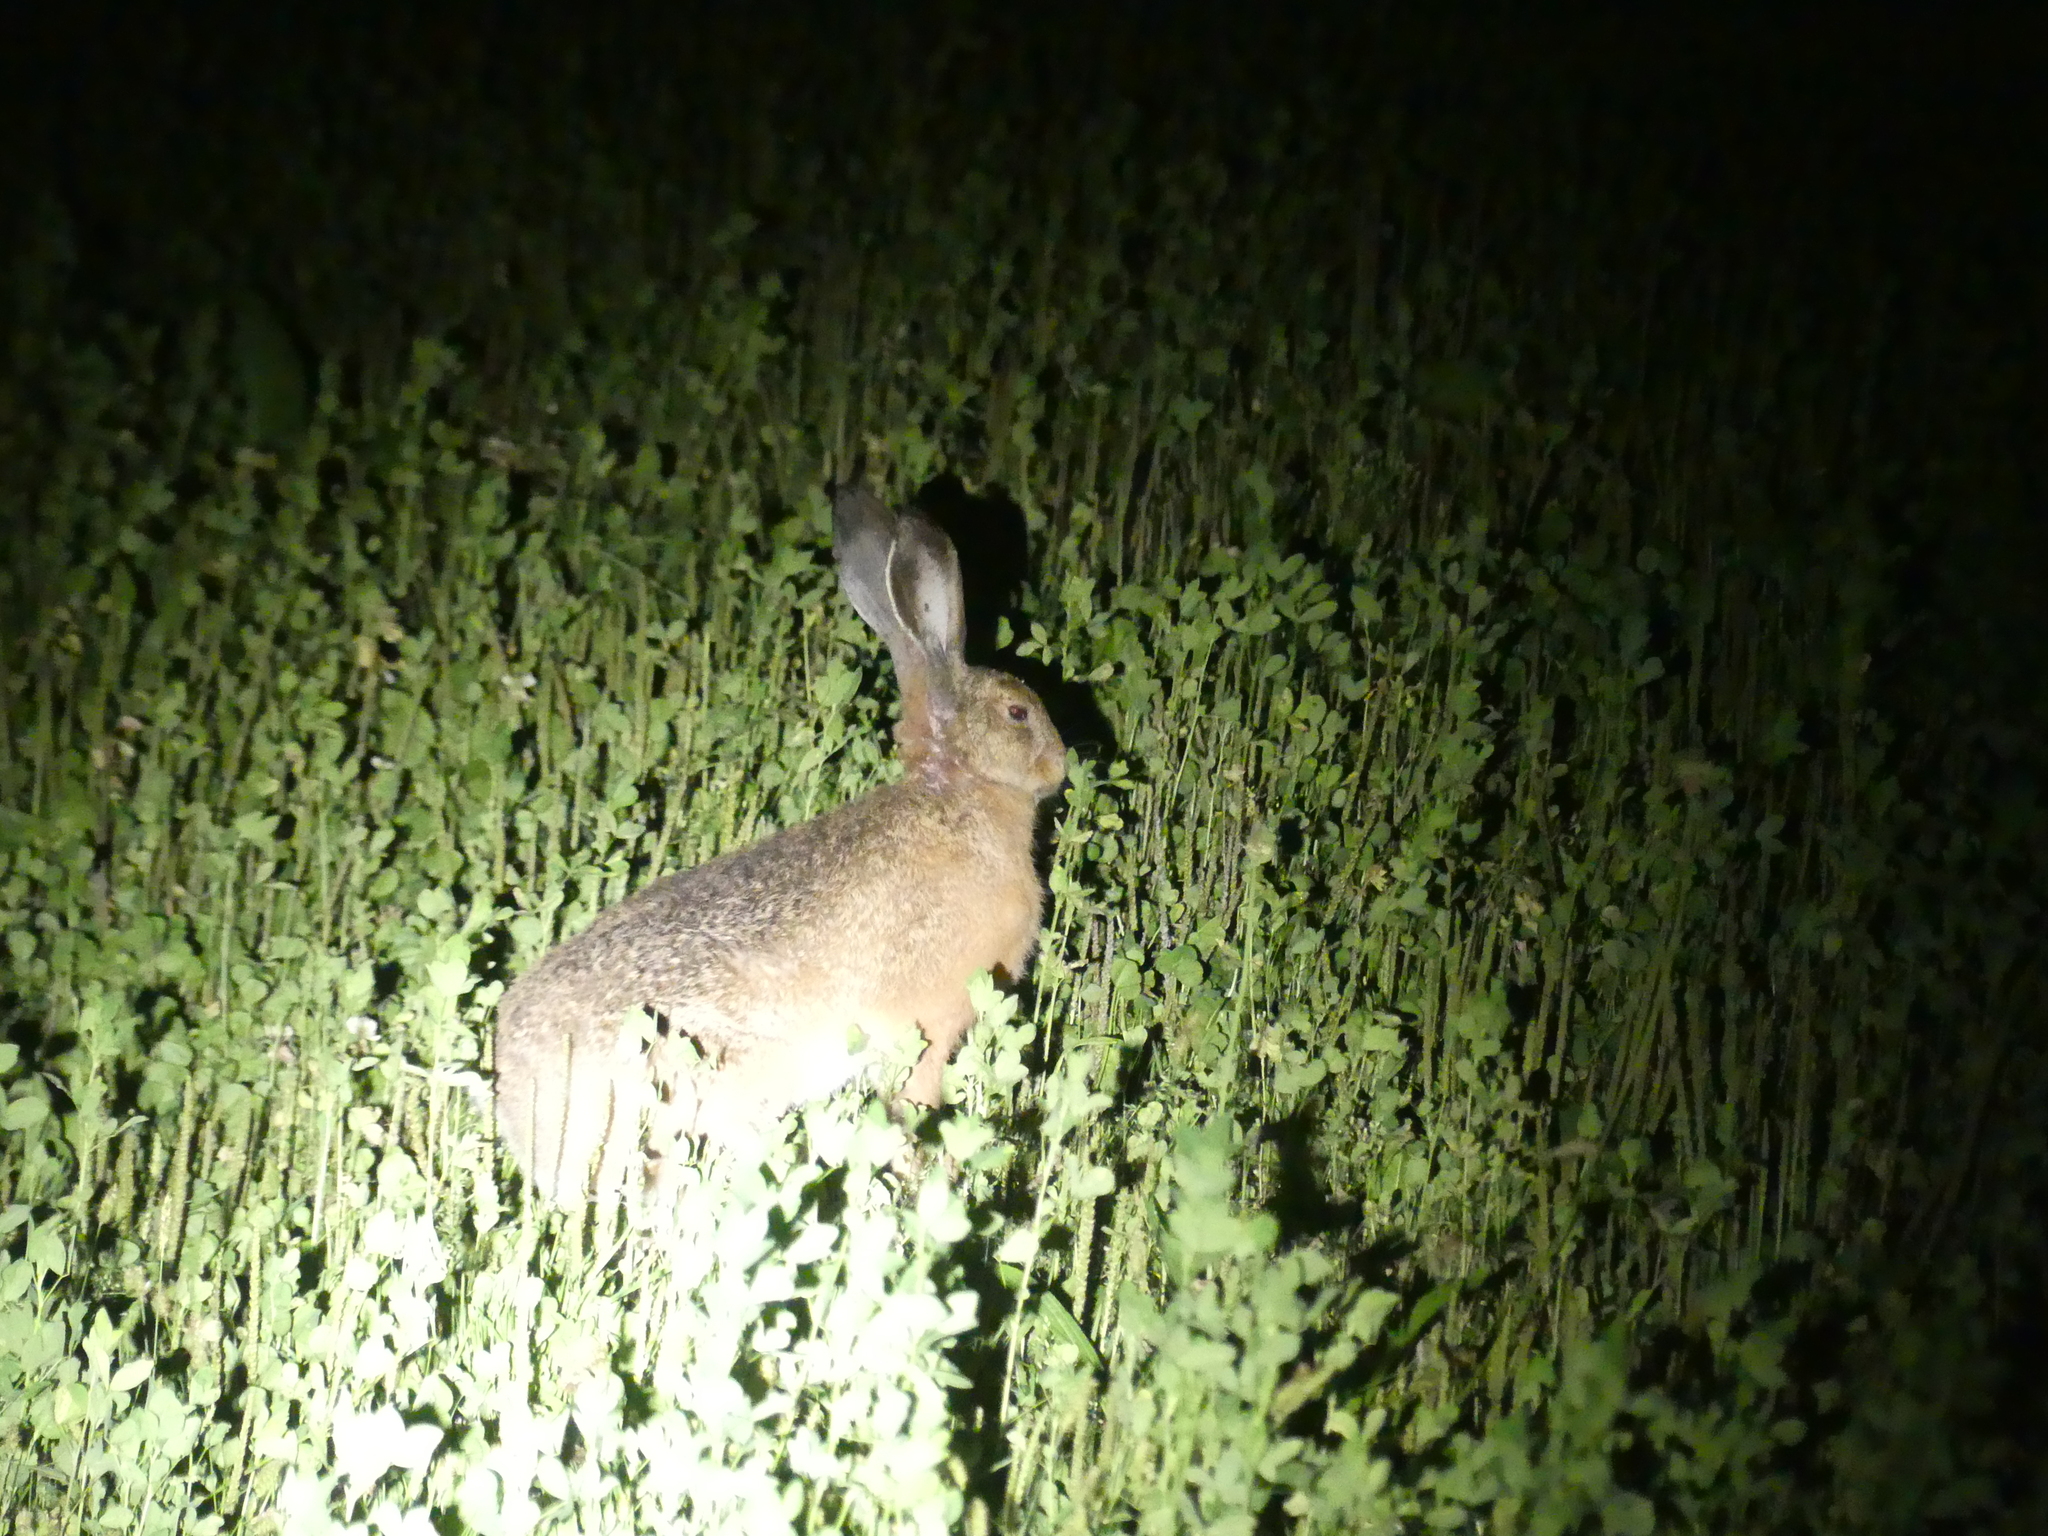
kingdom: Animalia
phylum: Chordata
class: Mammalia
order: Lagomorpha
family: Leporidae
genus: Lepus
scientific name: Lepus europaeus
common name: European hare
